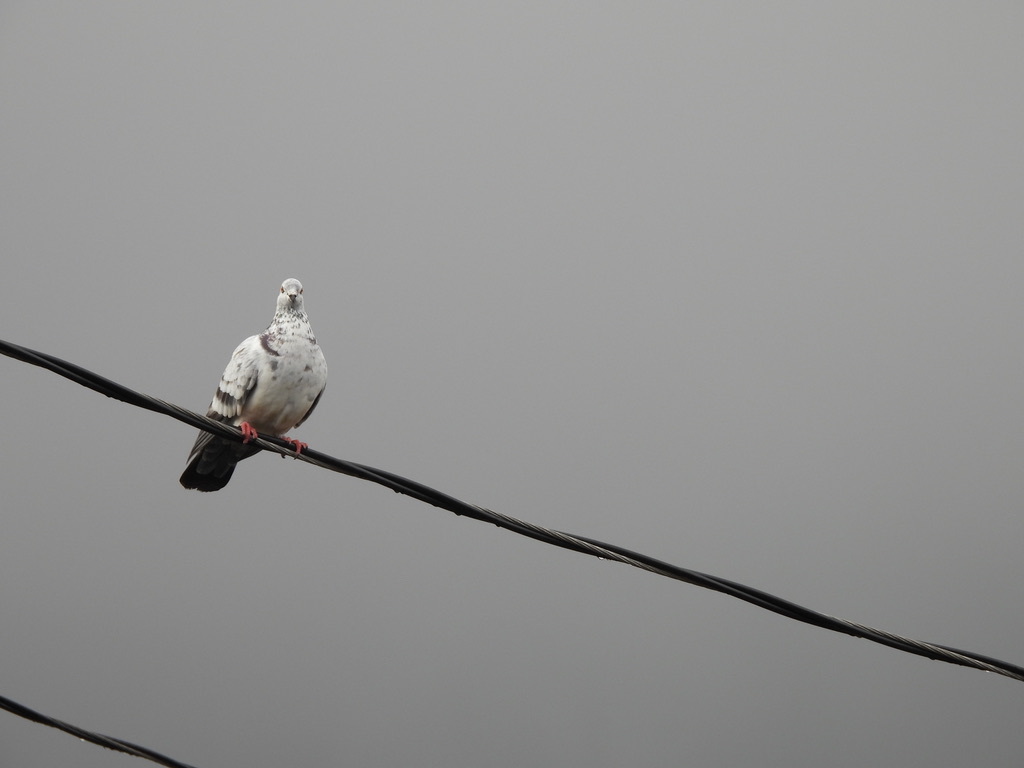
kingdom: Animalia
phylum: Chordata
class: Aves
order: Columbiformes
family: Columbidae
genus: Columba
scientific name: Columba livia
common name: Rock pigeon
